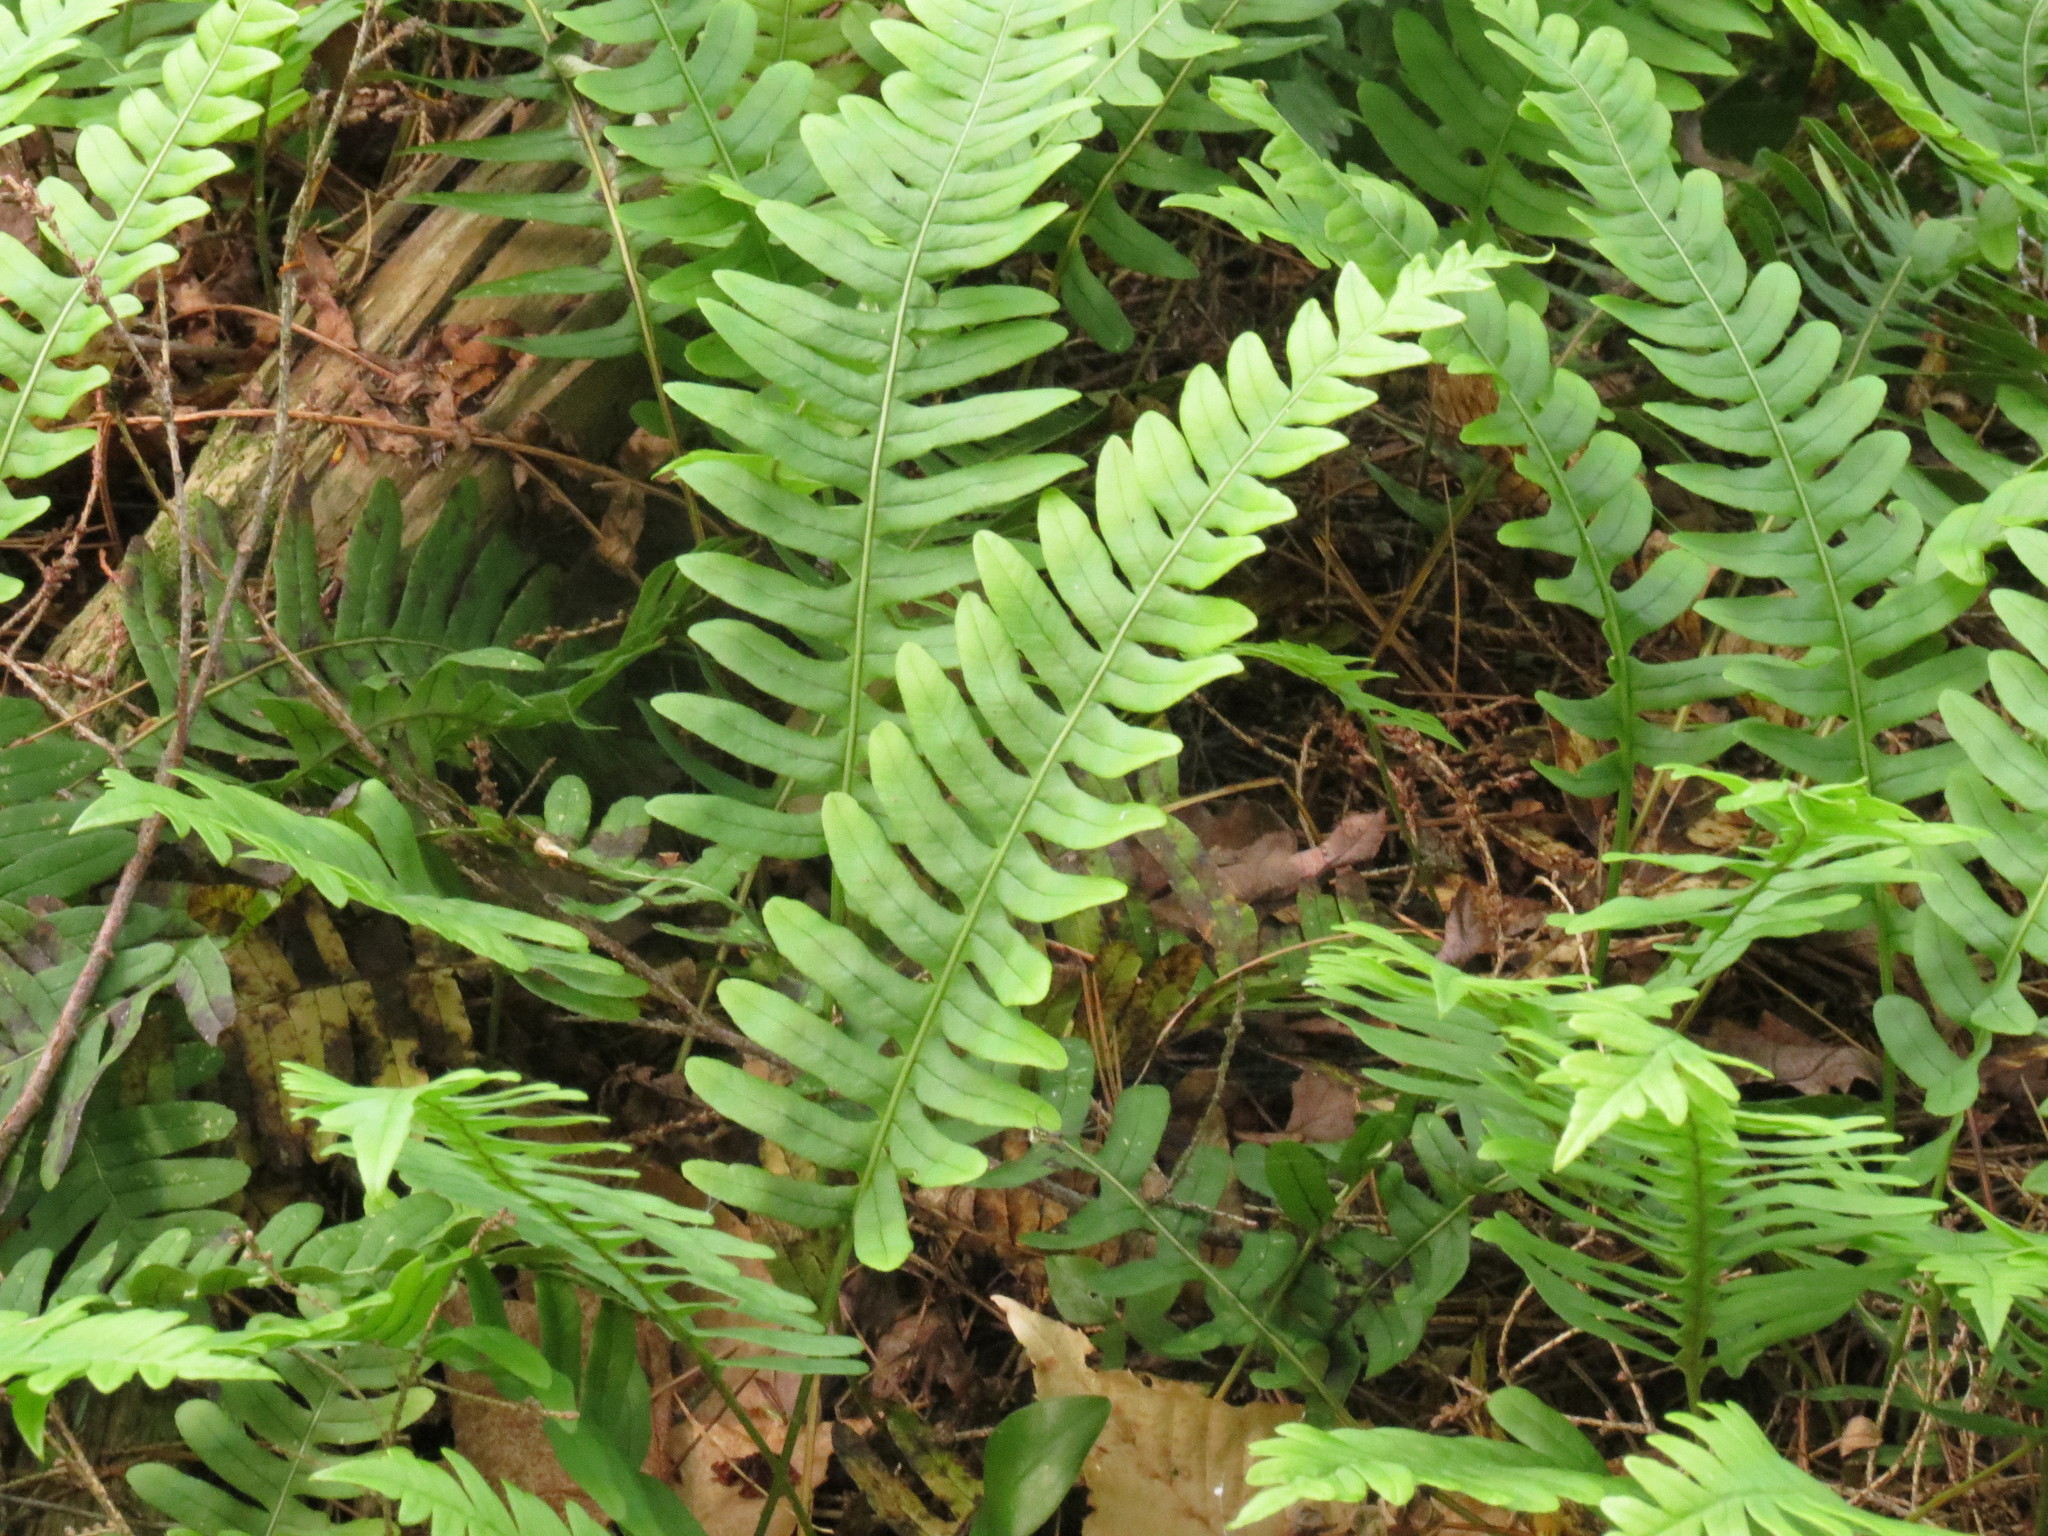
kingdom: Plantae
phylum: Tracheophyta
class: Polypodiopsida
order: Polypodiales
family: Polypodiaceae
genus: Polypodium
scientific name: Polypodium virginianum
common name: American wall fern
